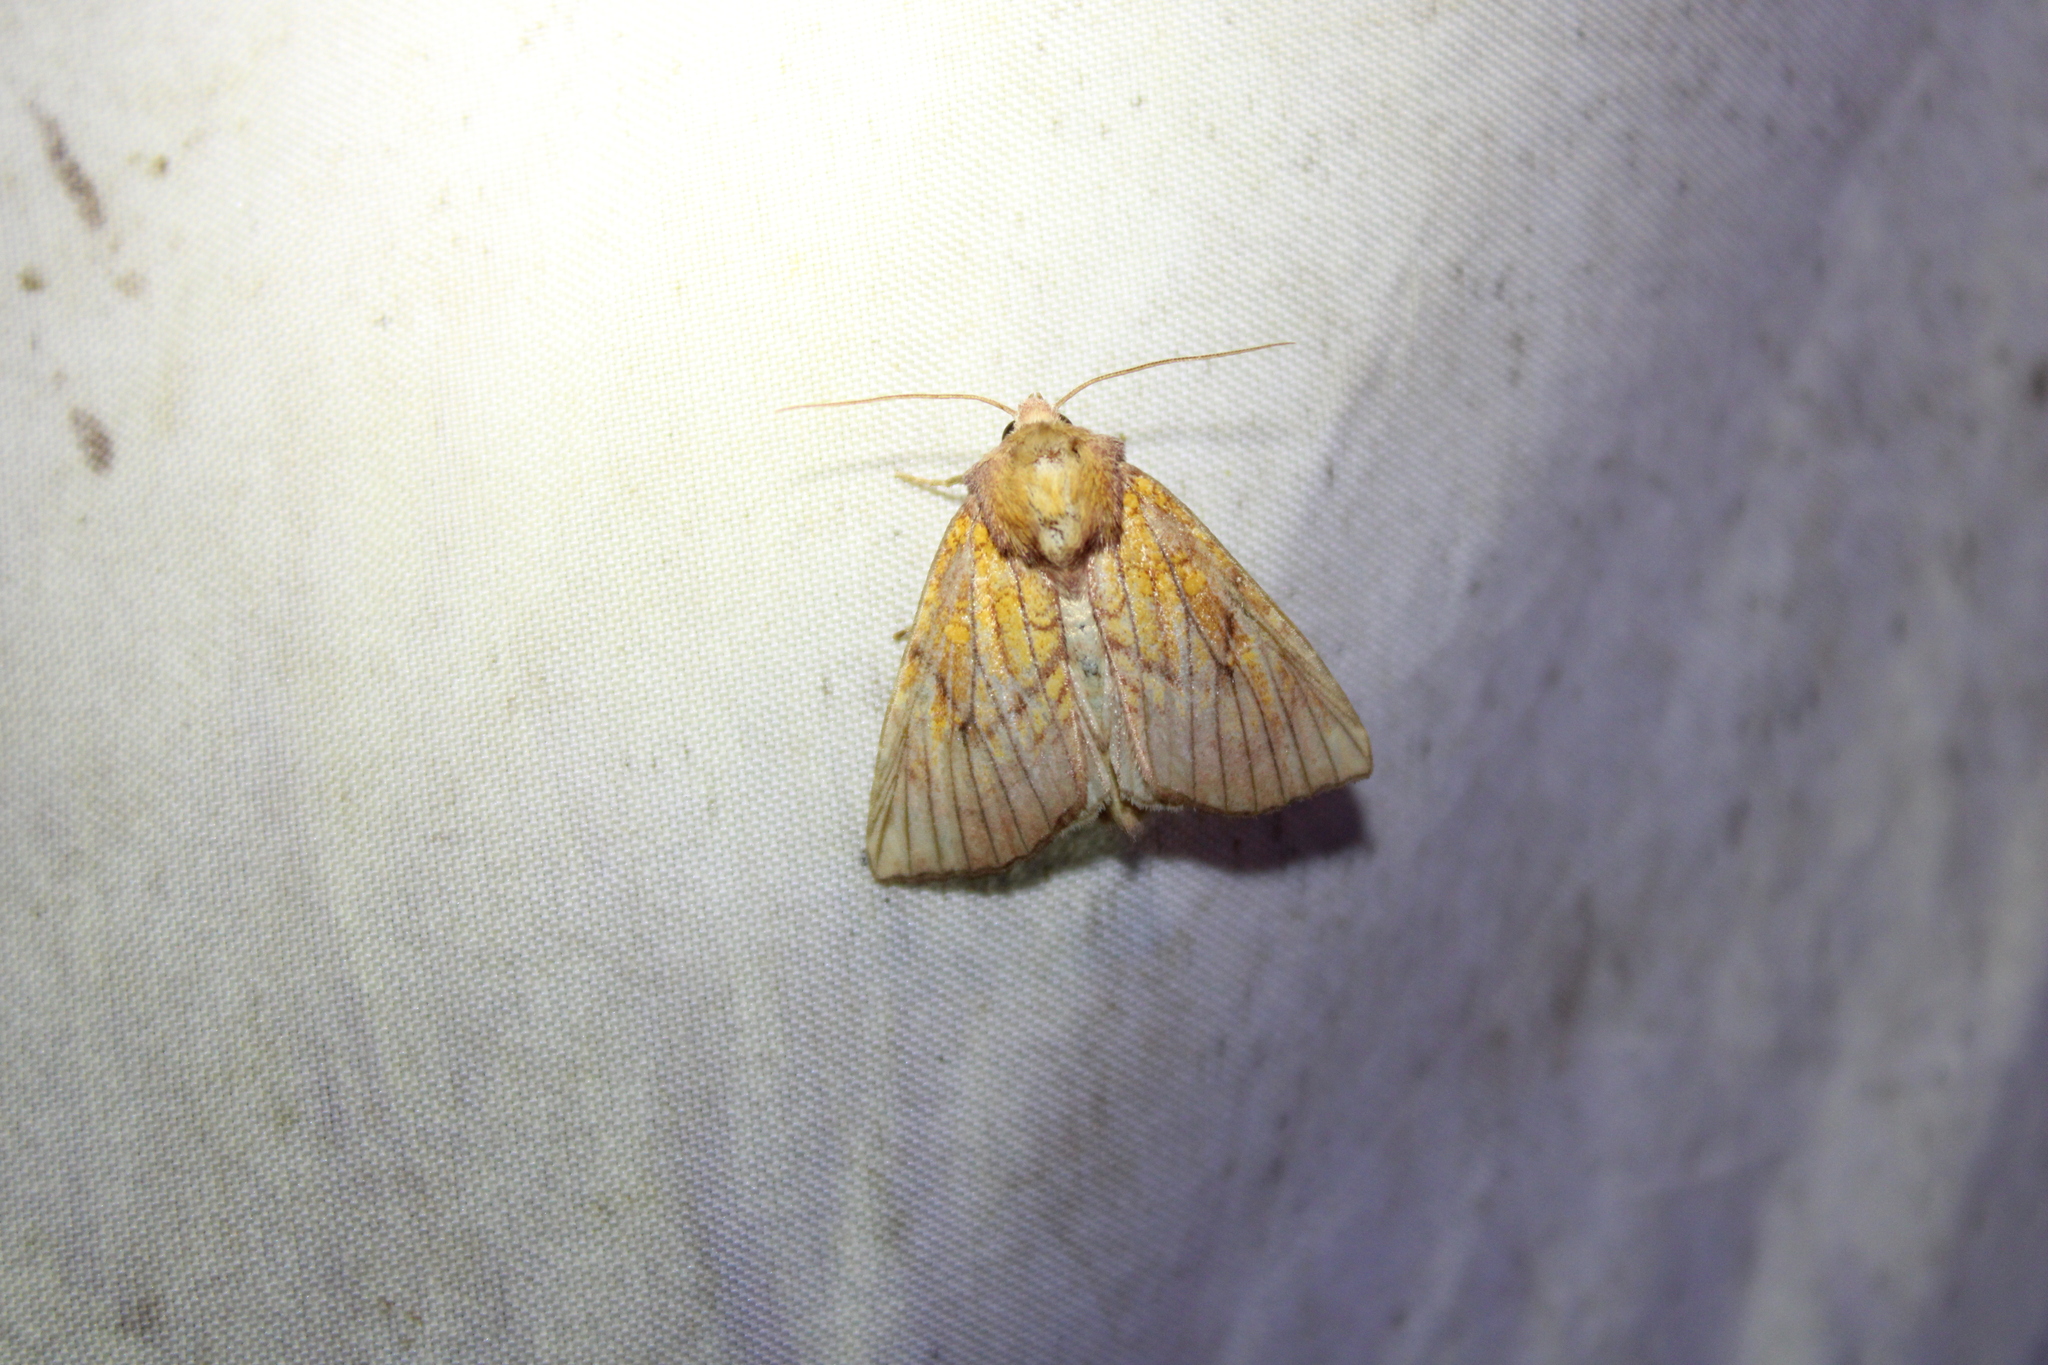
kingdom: Animalia
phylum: Arthropoda
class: Insecta
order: Lepidoptera
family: Noctuidae
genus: Papaipema
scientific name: Papaipema inquaesita
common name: Sensitive fern borer moth
